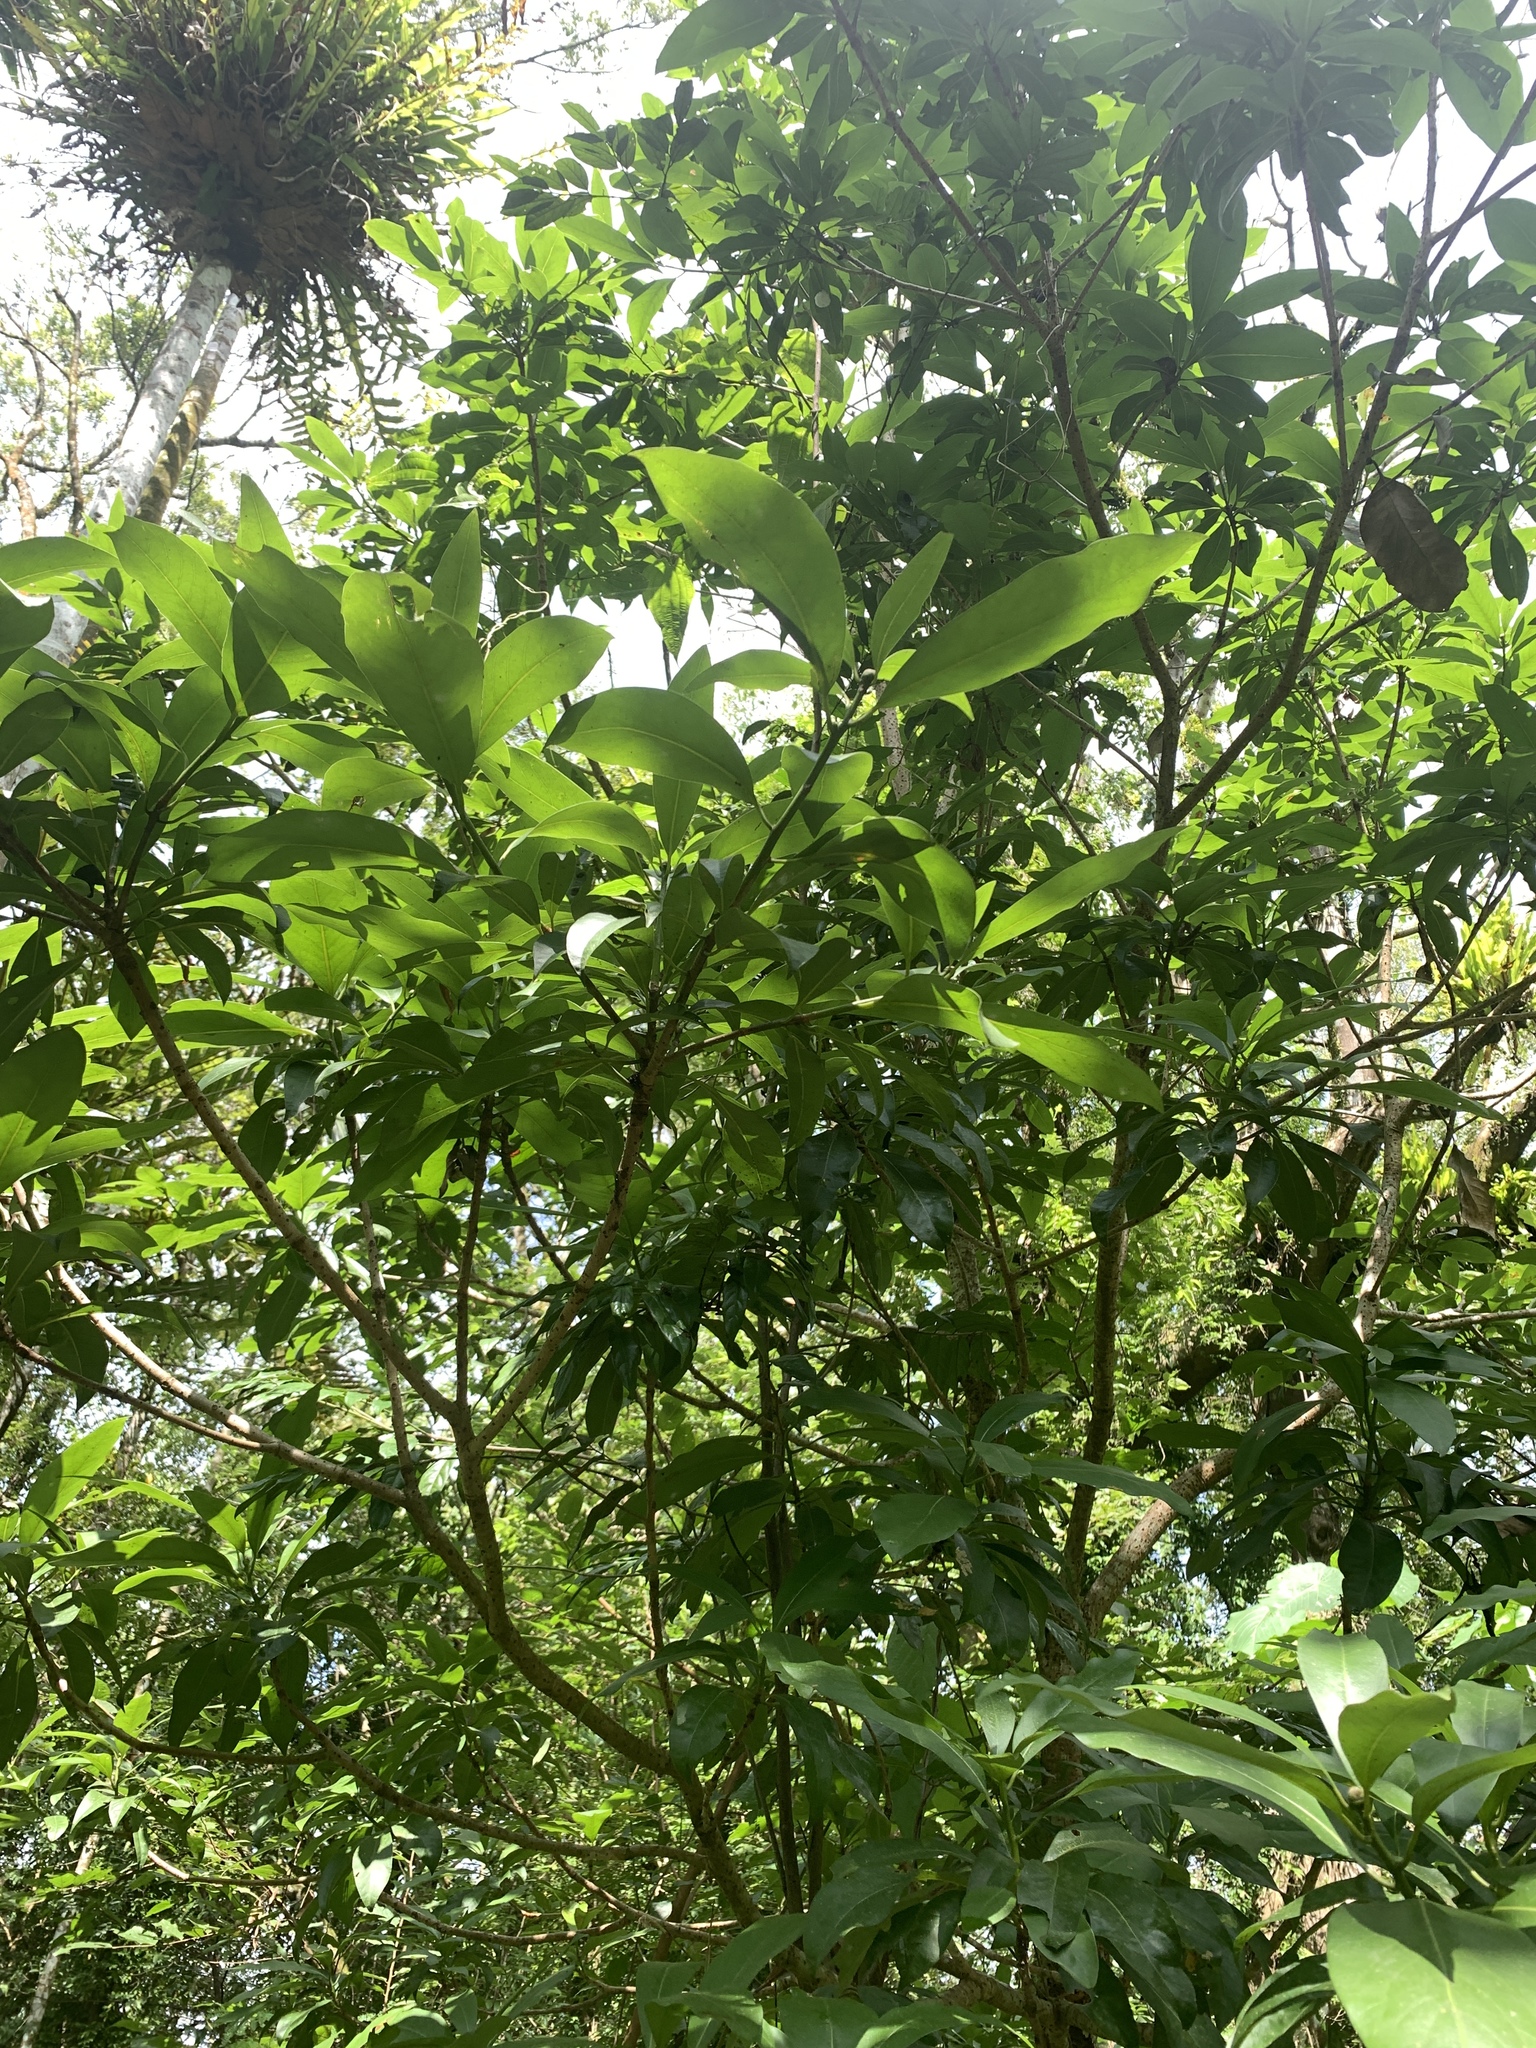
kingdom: Plantae
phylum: Tracheophyta
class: Magnoliopsida
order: Laurales
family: Lauraceae
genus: Machilus
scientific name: Machilus japonica
